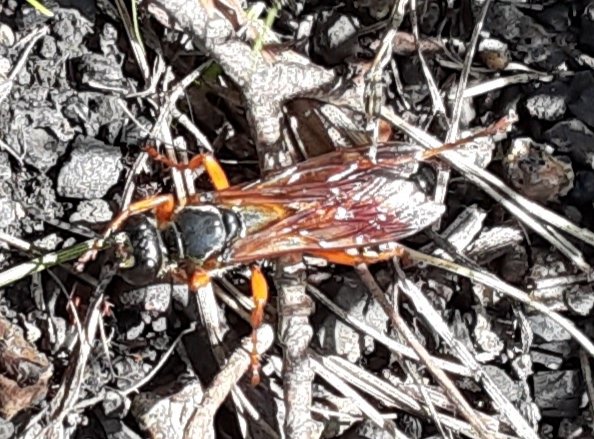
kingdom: Animalia
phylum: Arthropoda
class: Insecta
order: Hymenoptera
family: Sphecidae
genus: Sphex
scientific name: Sphex ichneumoneus
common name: Great golden digger wasp
